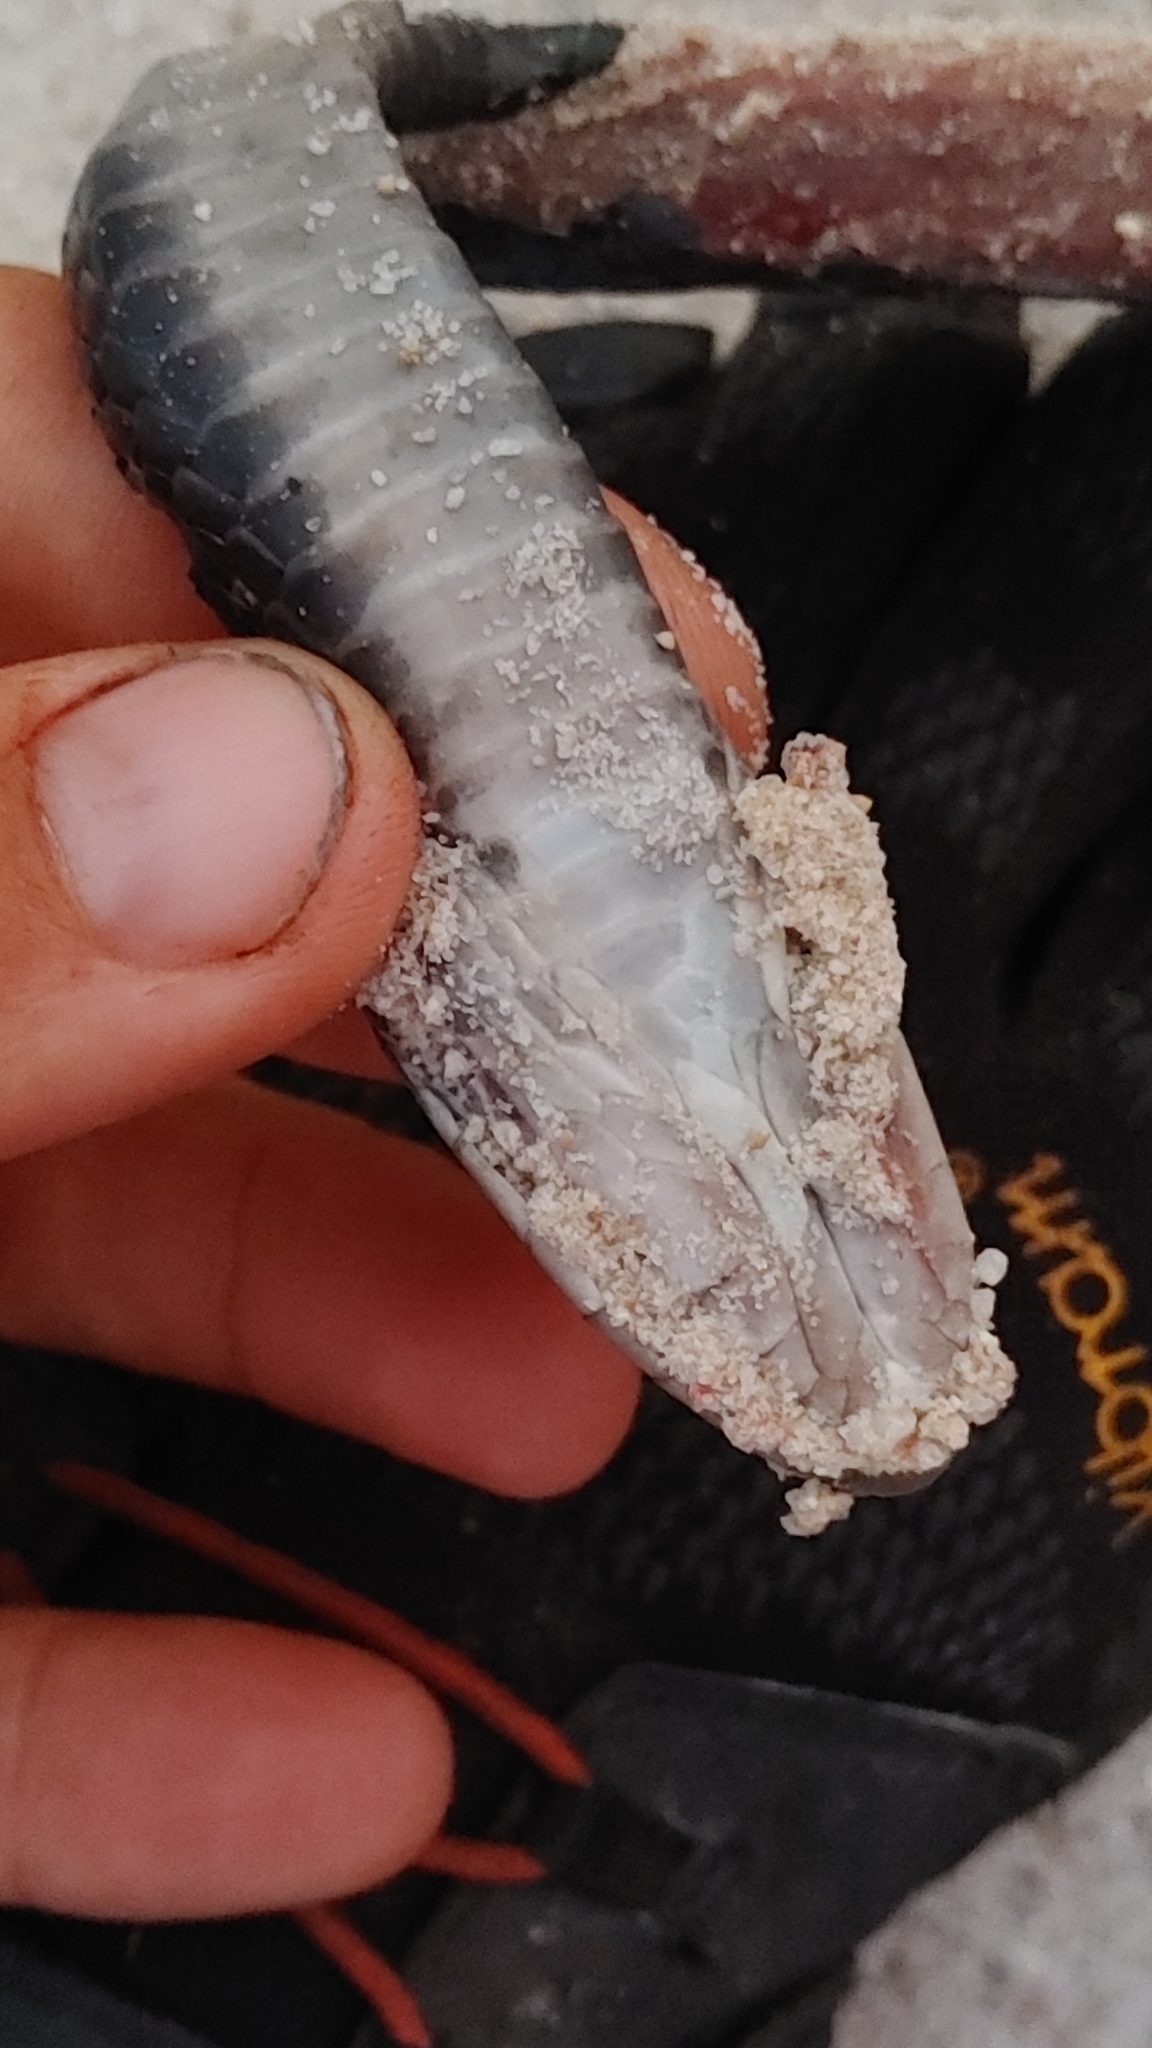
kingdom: Animalia
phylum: Chordata
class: Squamata
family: Colubridae
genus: Coluber
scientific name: Coluber constrictor
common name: Eastern racer
